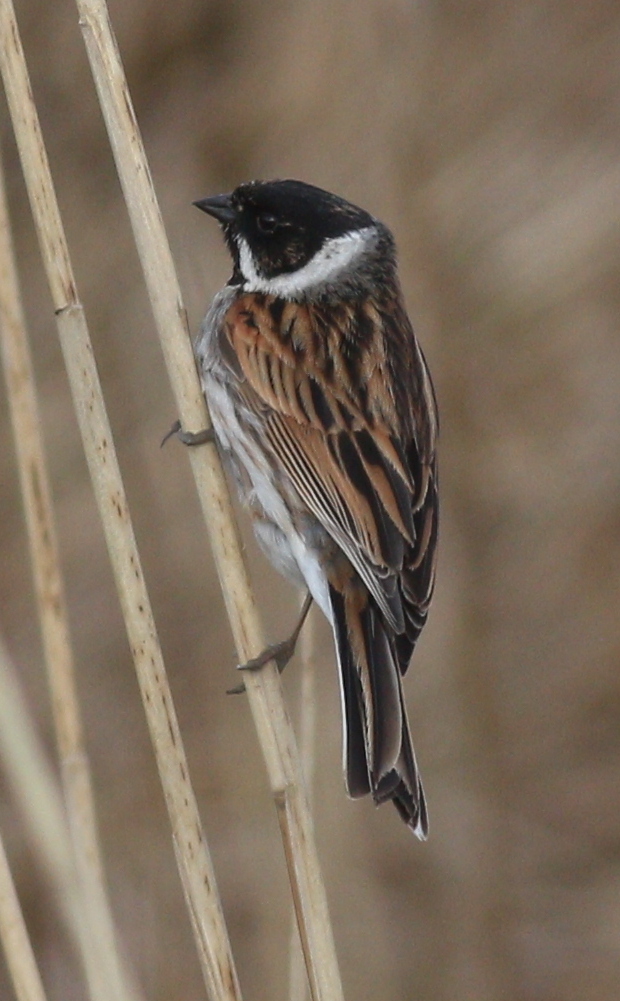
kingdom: Animalia
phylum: Chordata
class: Aves
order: Passeriformes
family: Emberizidae
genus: Emberiza
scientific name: Emberiza schoeniclus
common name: Reed bunting
